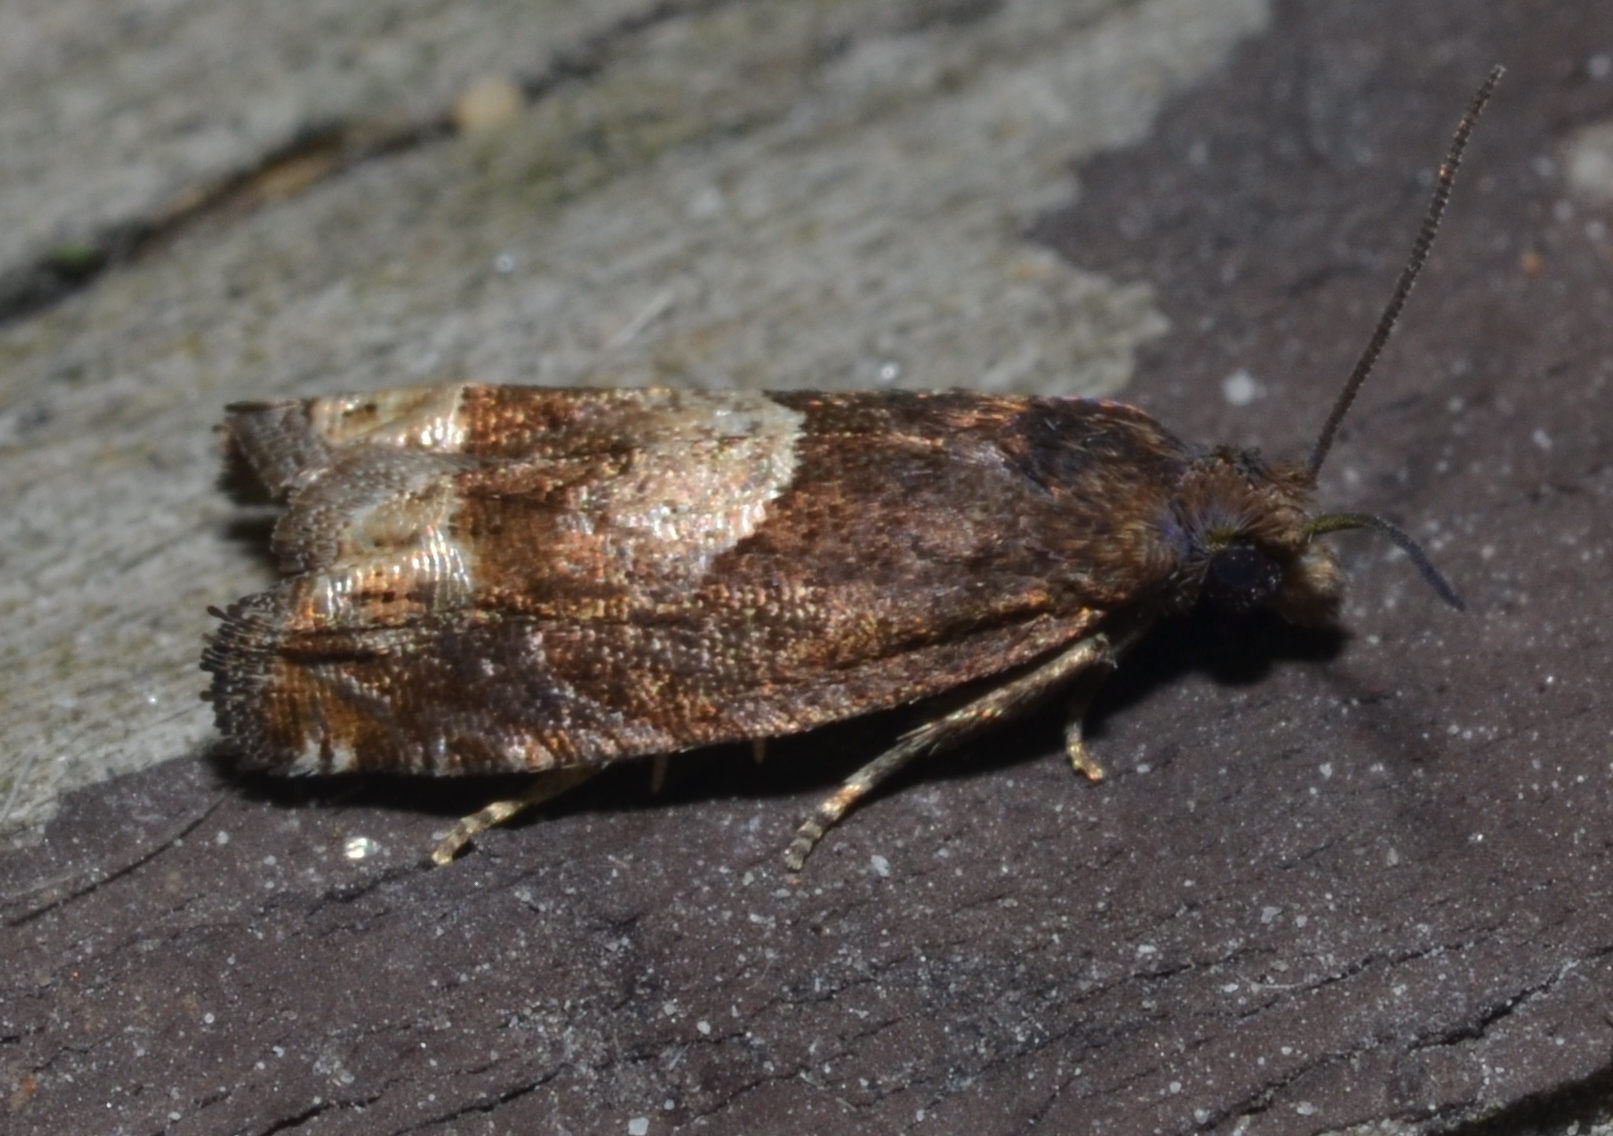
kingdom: Animalia
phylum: Arthropoda
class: Insecta
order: Lepidoptera
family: Tortricidae
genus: Eucosma
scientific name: Eucosma parmatana
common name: Aster eucosma moth
